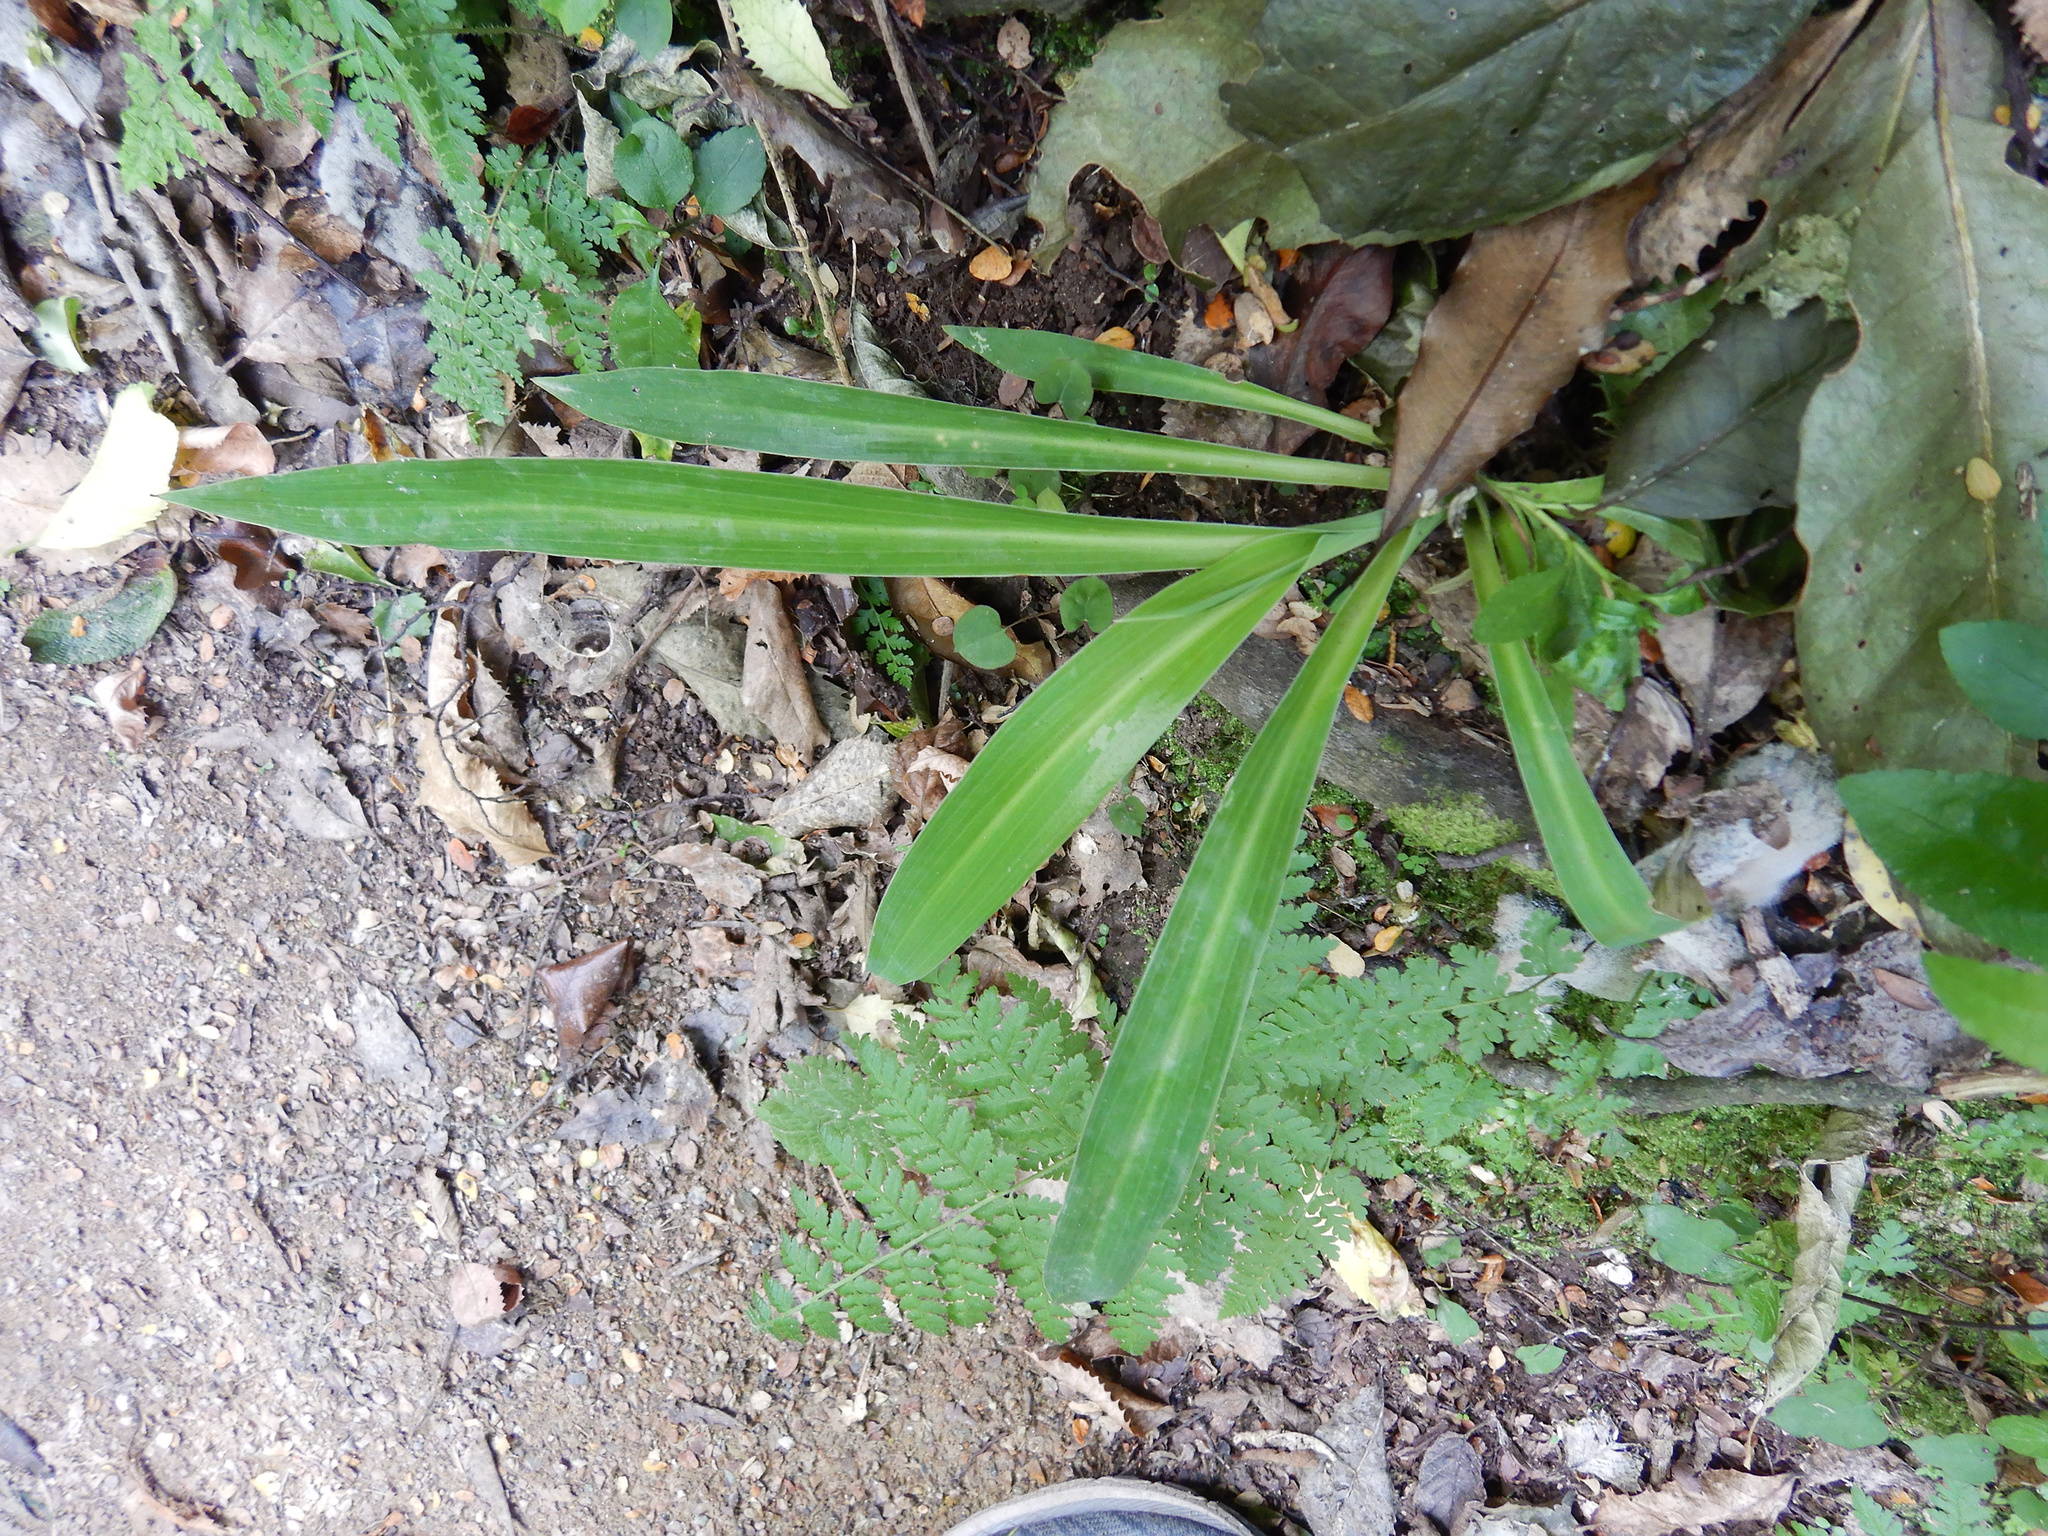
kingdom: Plantae
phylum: Tracheophyta
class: Liliopsida
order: Asparagales
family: Asparagaceae
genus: Arthropodium
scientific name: Arthropodium cirratum
